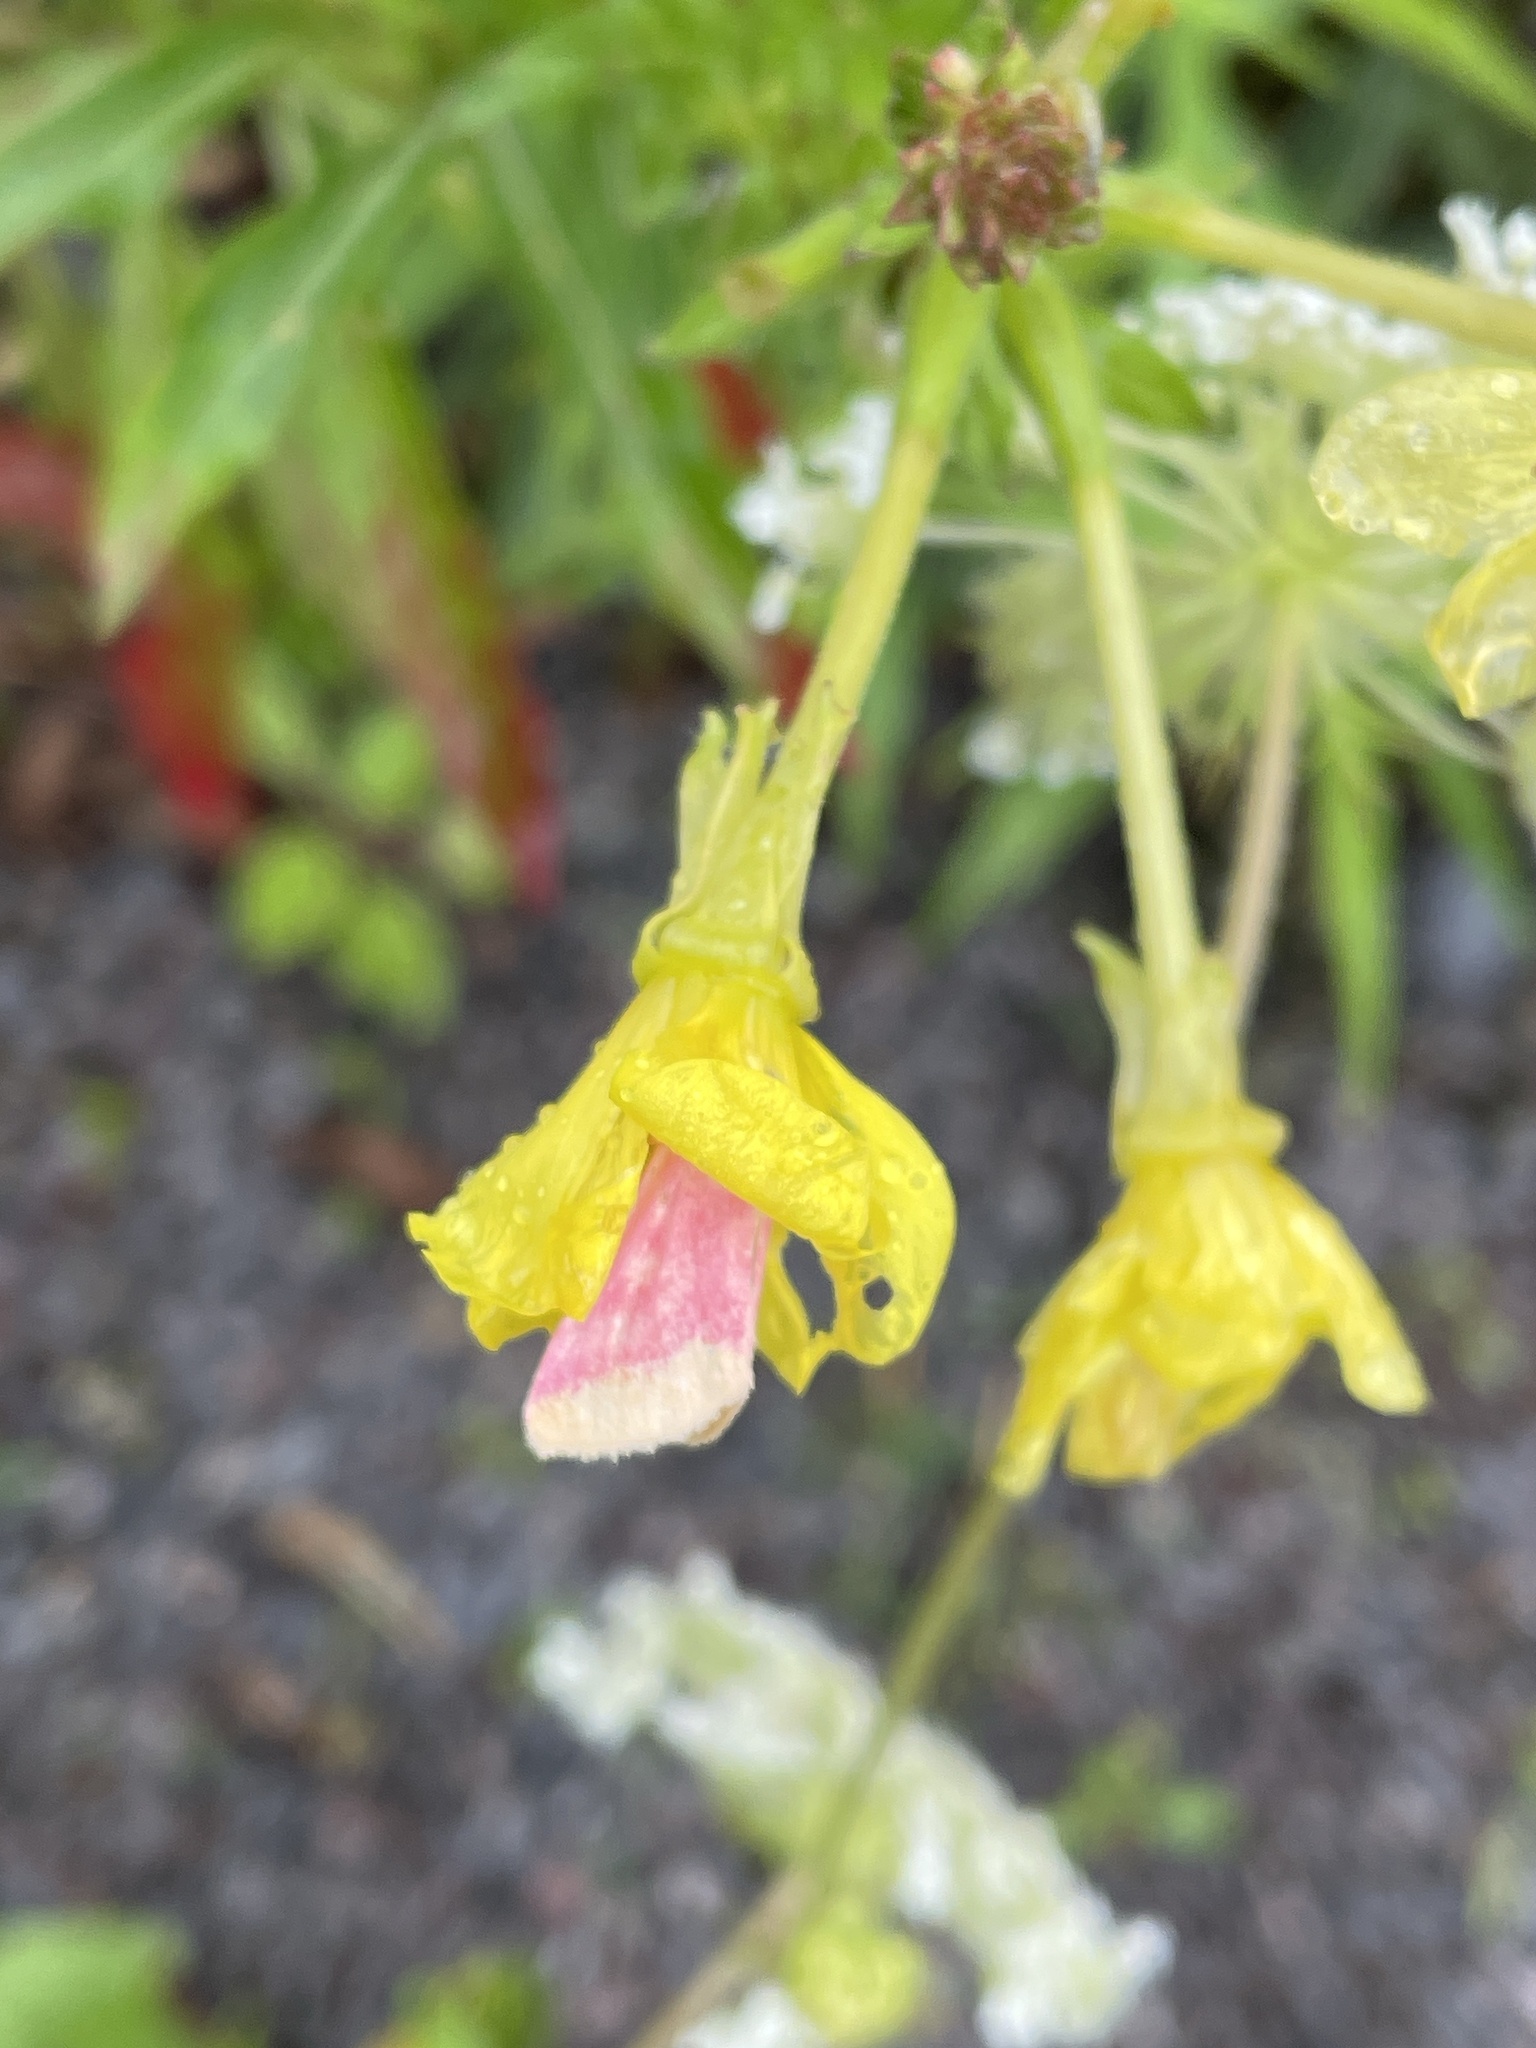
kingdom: Animalia
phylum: Arthropoda
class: Insecta
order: Lepidoptera
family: Noctuidae
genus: Schinia
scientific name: Schinia florida
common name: Primrose moth
